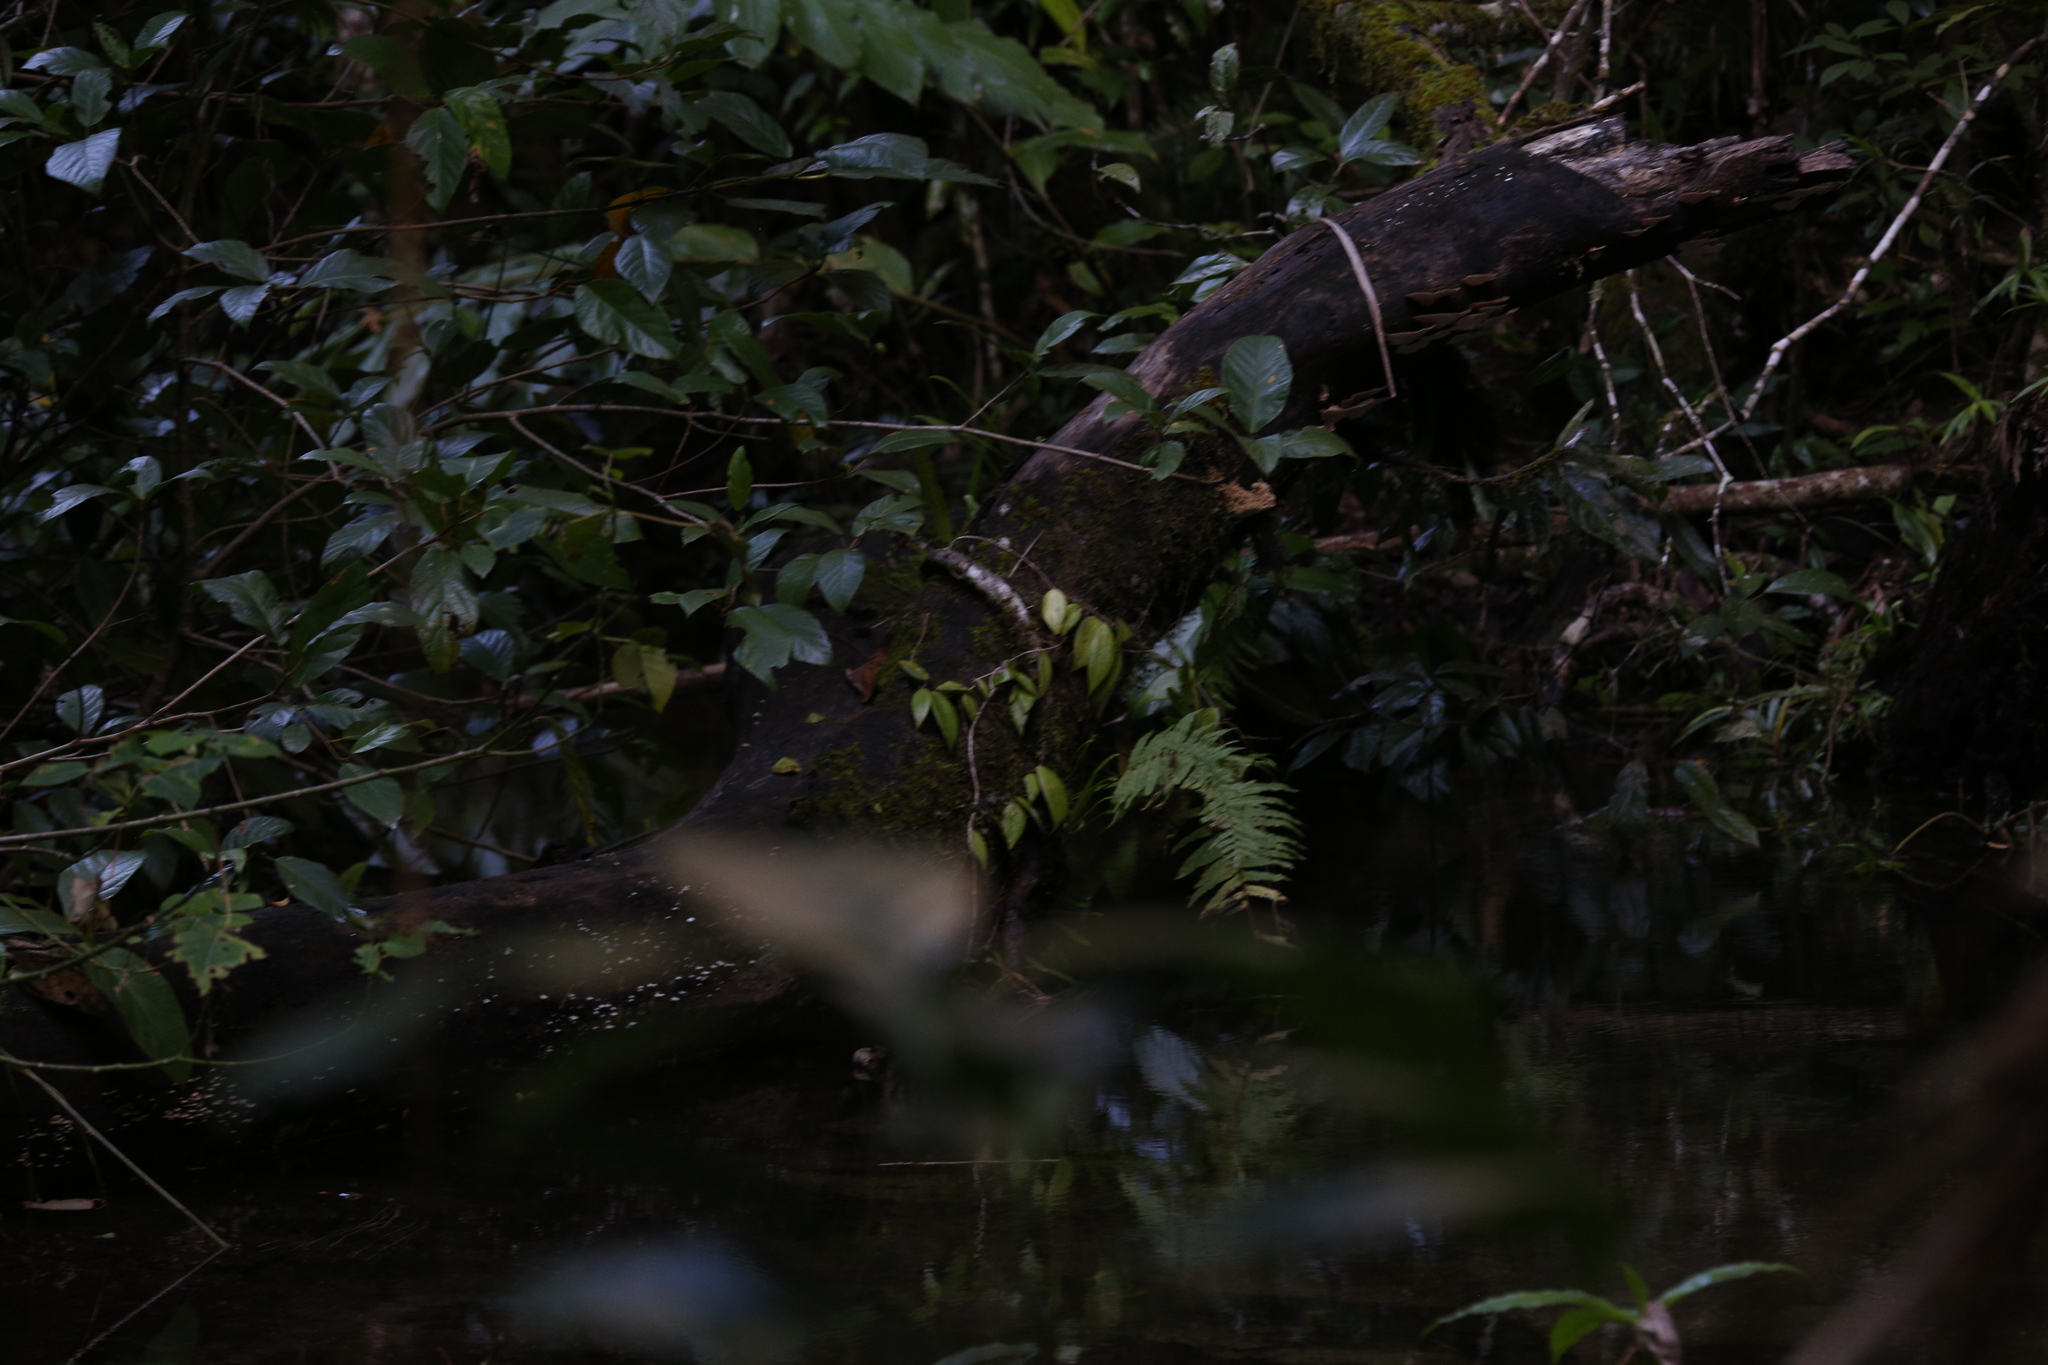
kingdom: Plantae
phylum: Tracheophyta
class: Magnoliopsida
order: Gentianales
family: Apocynaceae
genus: Hoya
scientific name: Hoya pottsii
